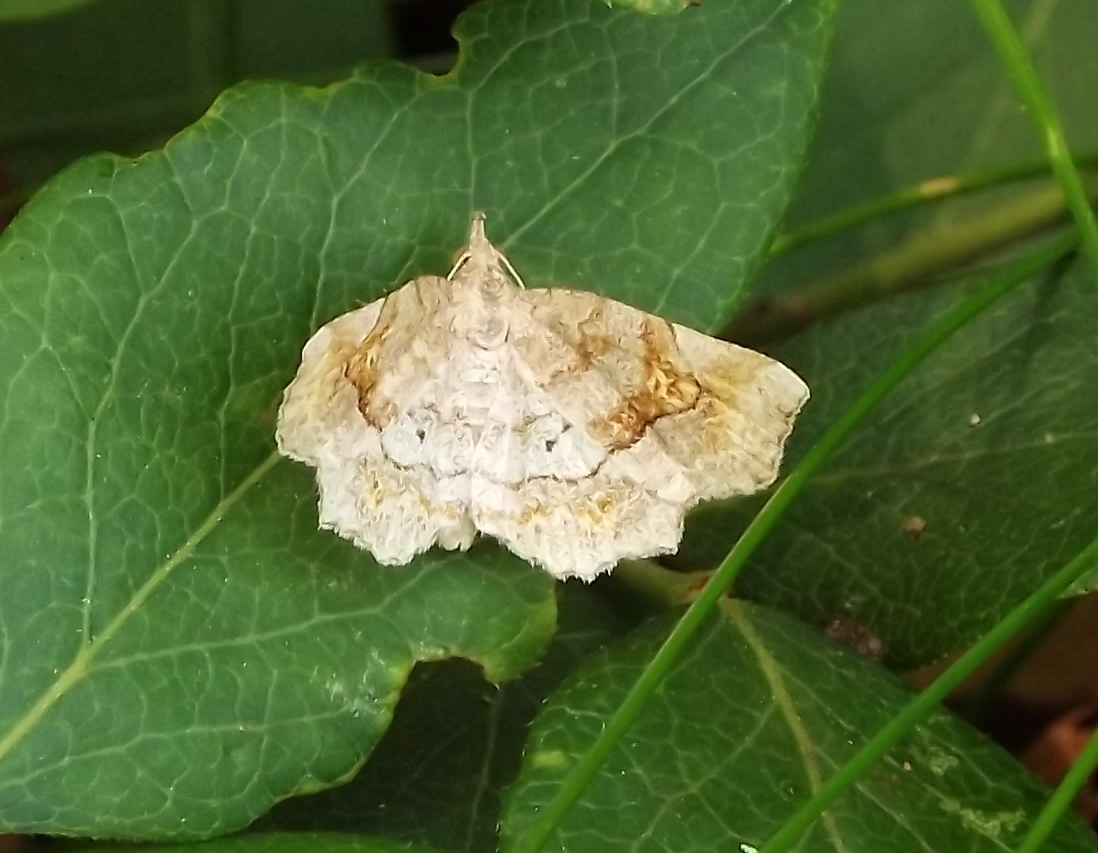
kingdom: Animalia
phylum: Arthropoda
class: Insecta
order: Lepidoptera
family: Erebidae
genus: Pangrapta
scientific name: Pangrapta decoralis
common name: Decorated owlet
